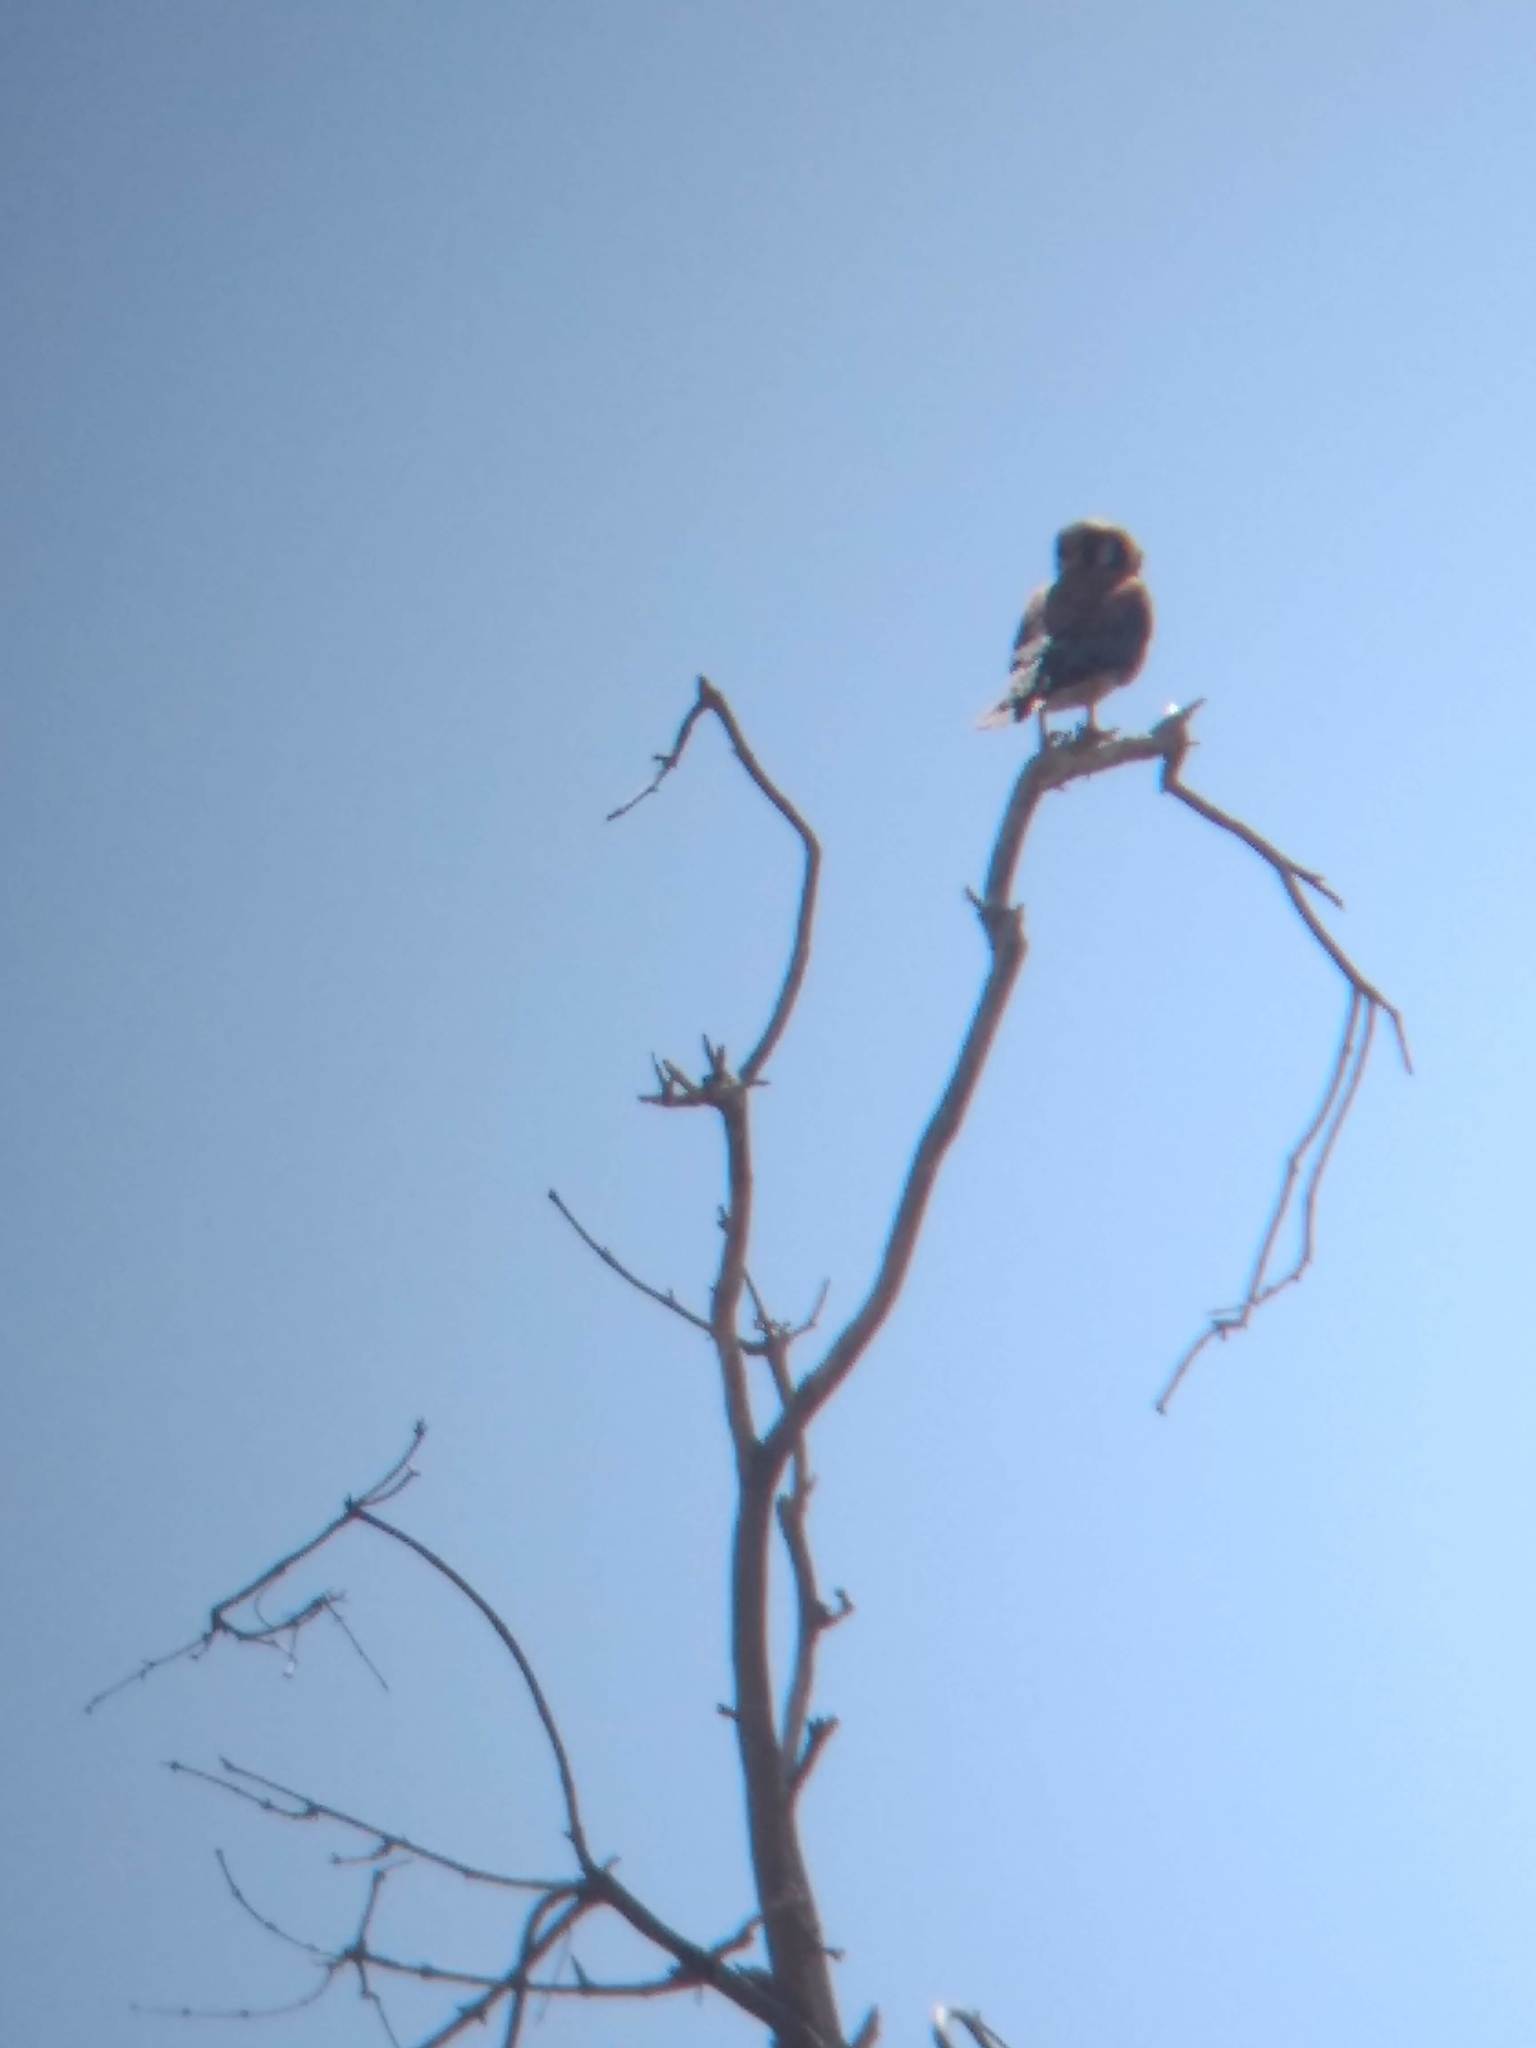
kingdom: Animalia
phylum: Chordata
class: Aves
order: Falconiformes
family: Falconidae
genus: Falco
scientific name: Falco sparverius
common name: American kestrel
